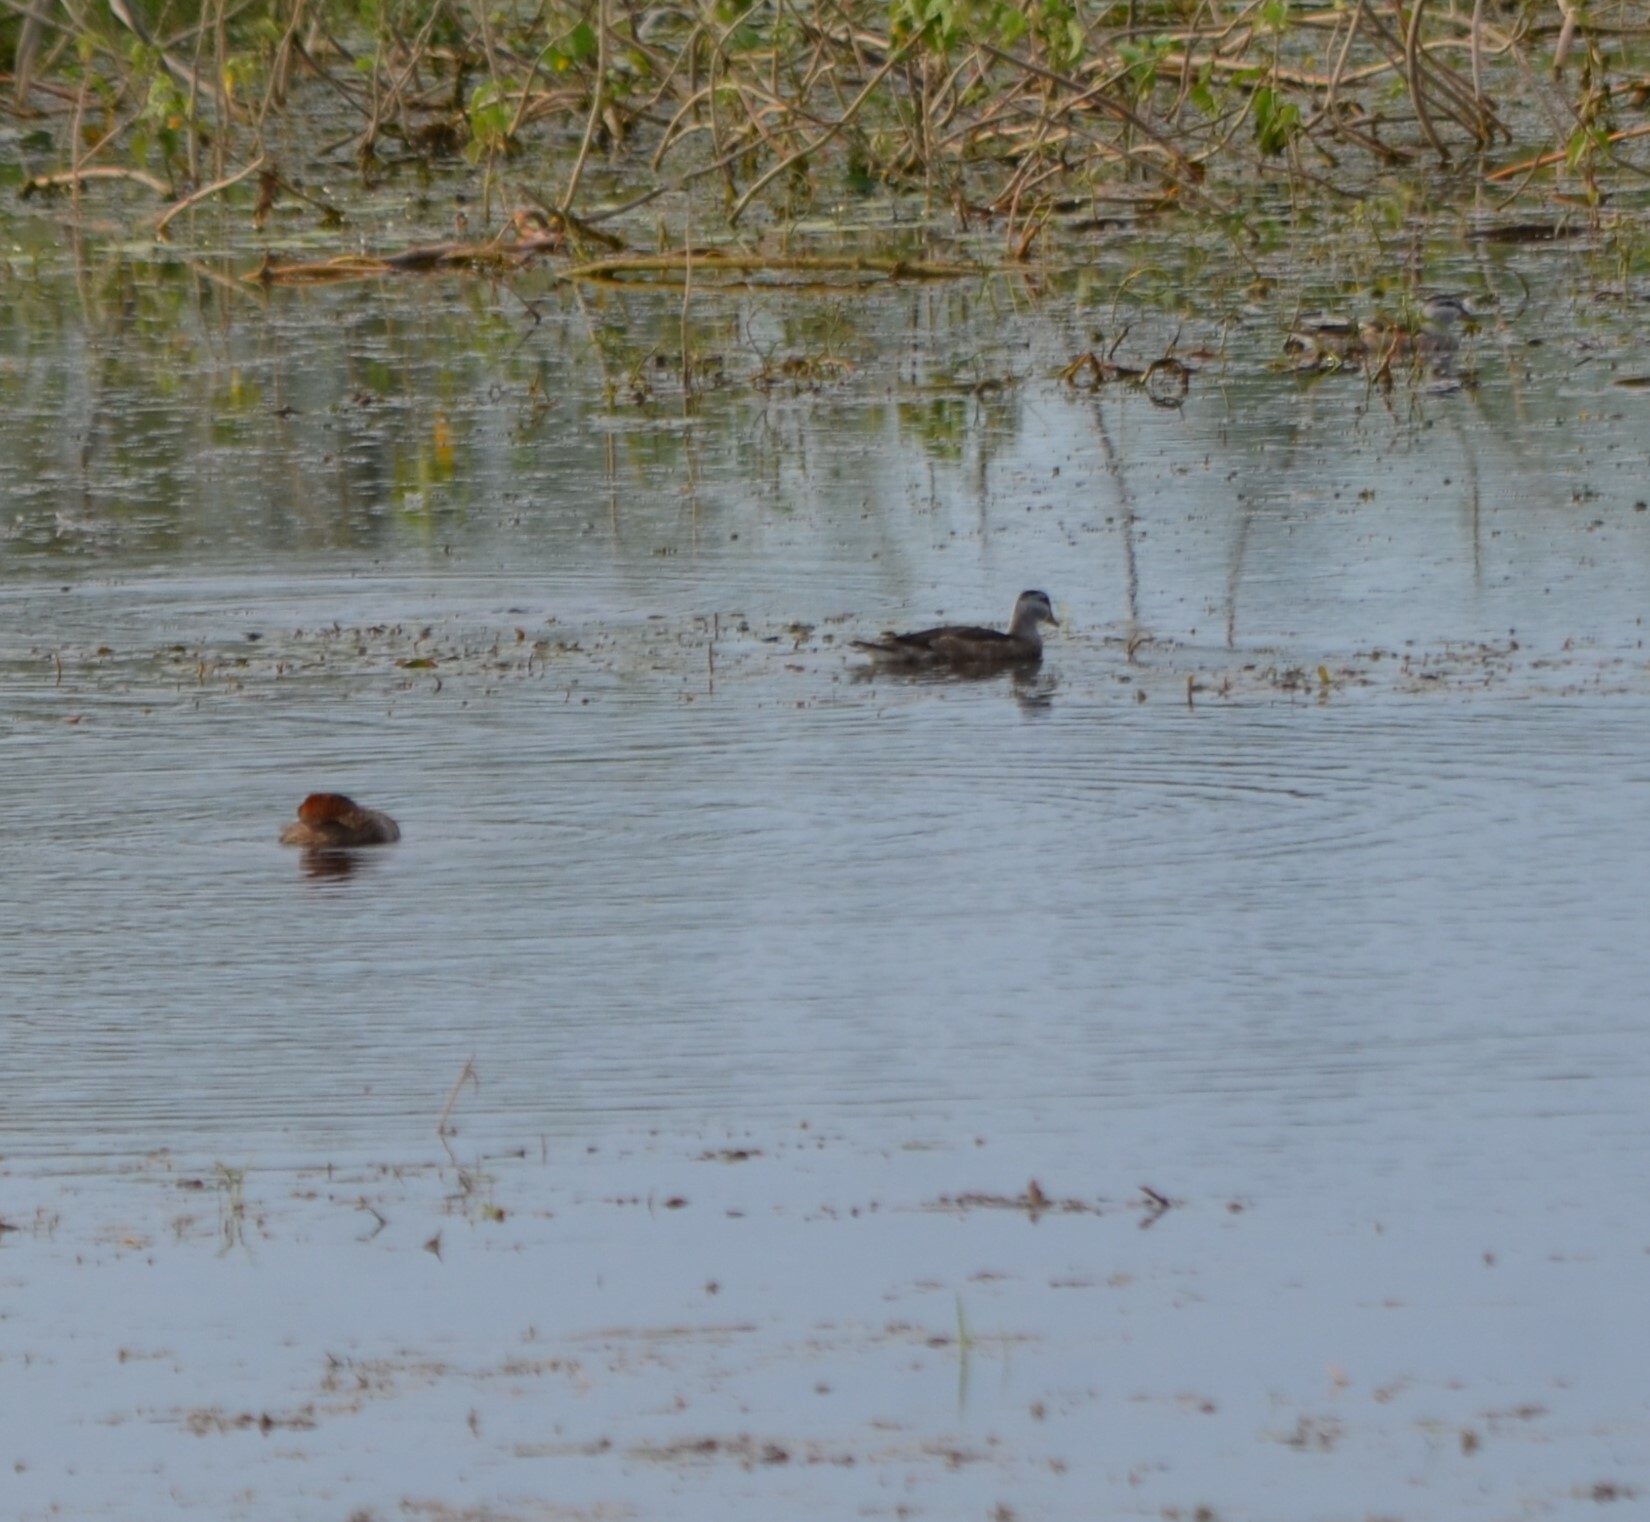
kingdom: Animalia
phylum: Chordata
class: Aves
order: Anseriformes
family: Anatidae
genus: Nettapus
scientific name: Nettapus coromandelianus
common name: Cotton pygmy-goose
